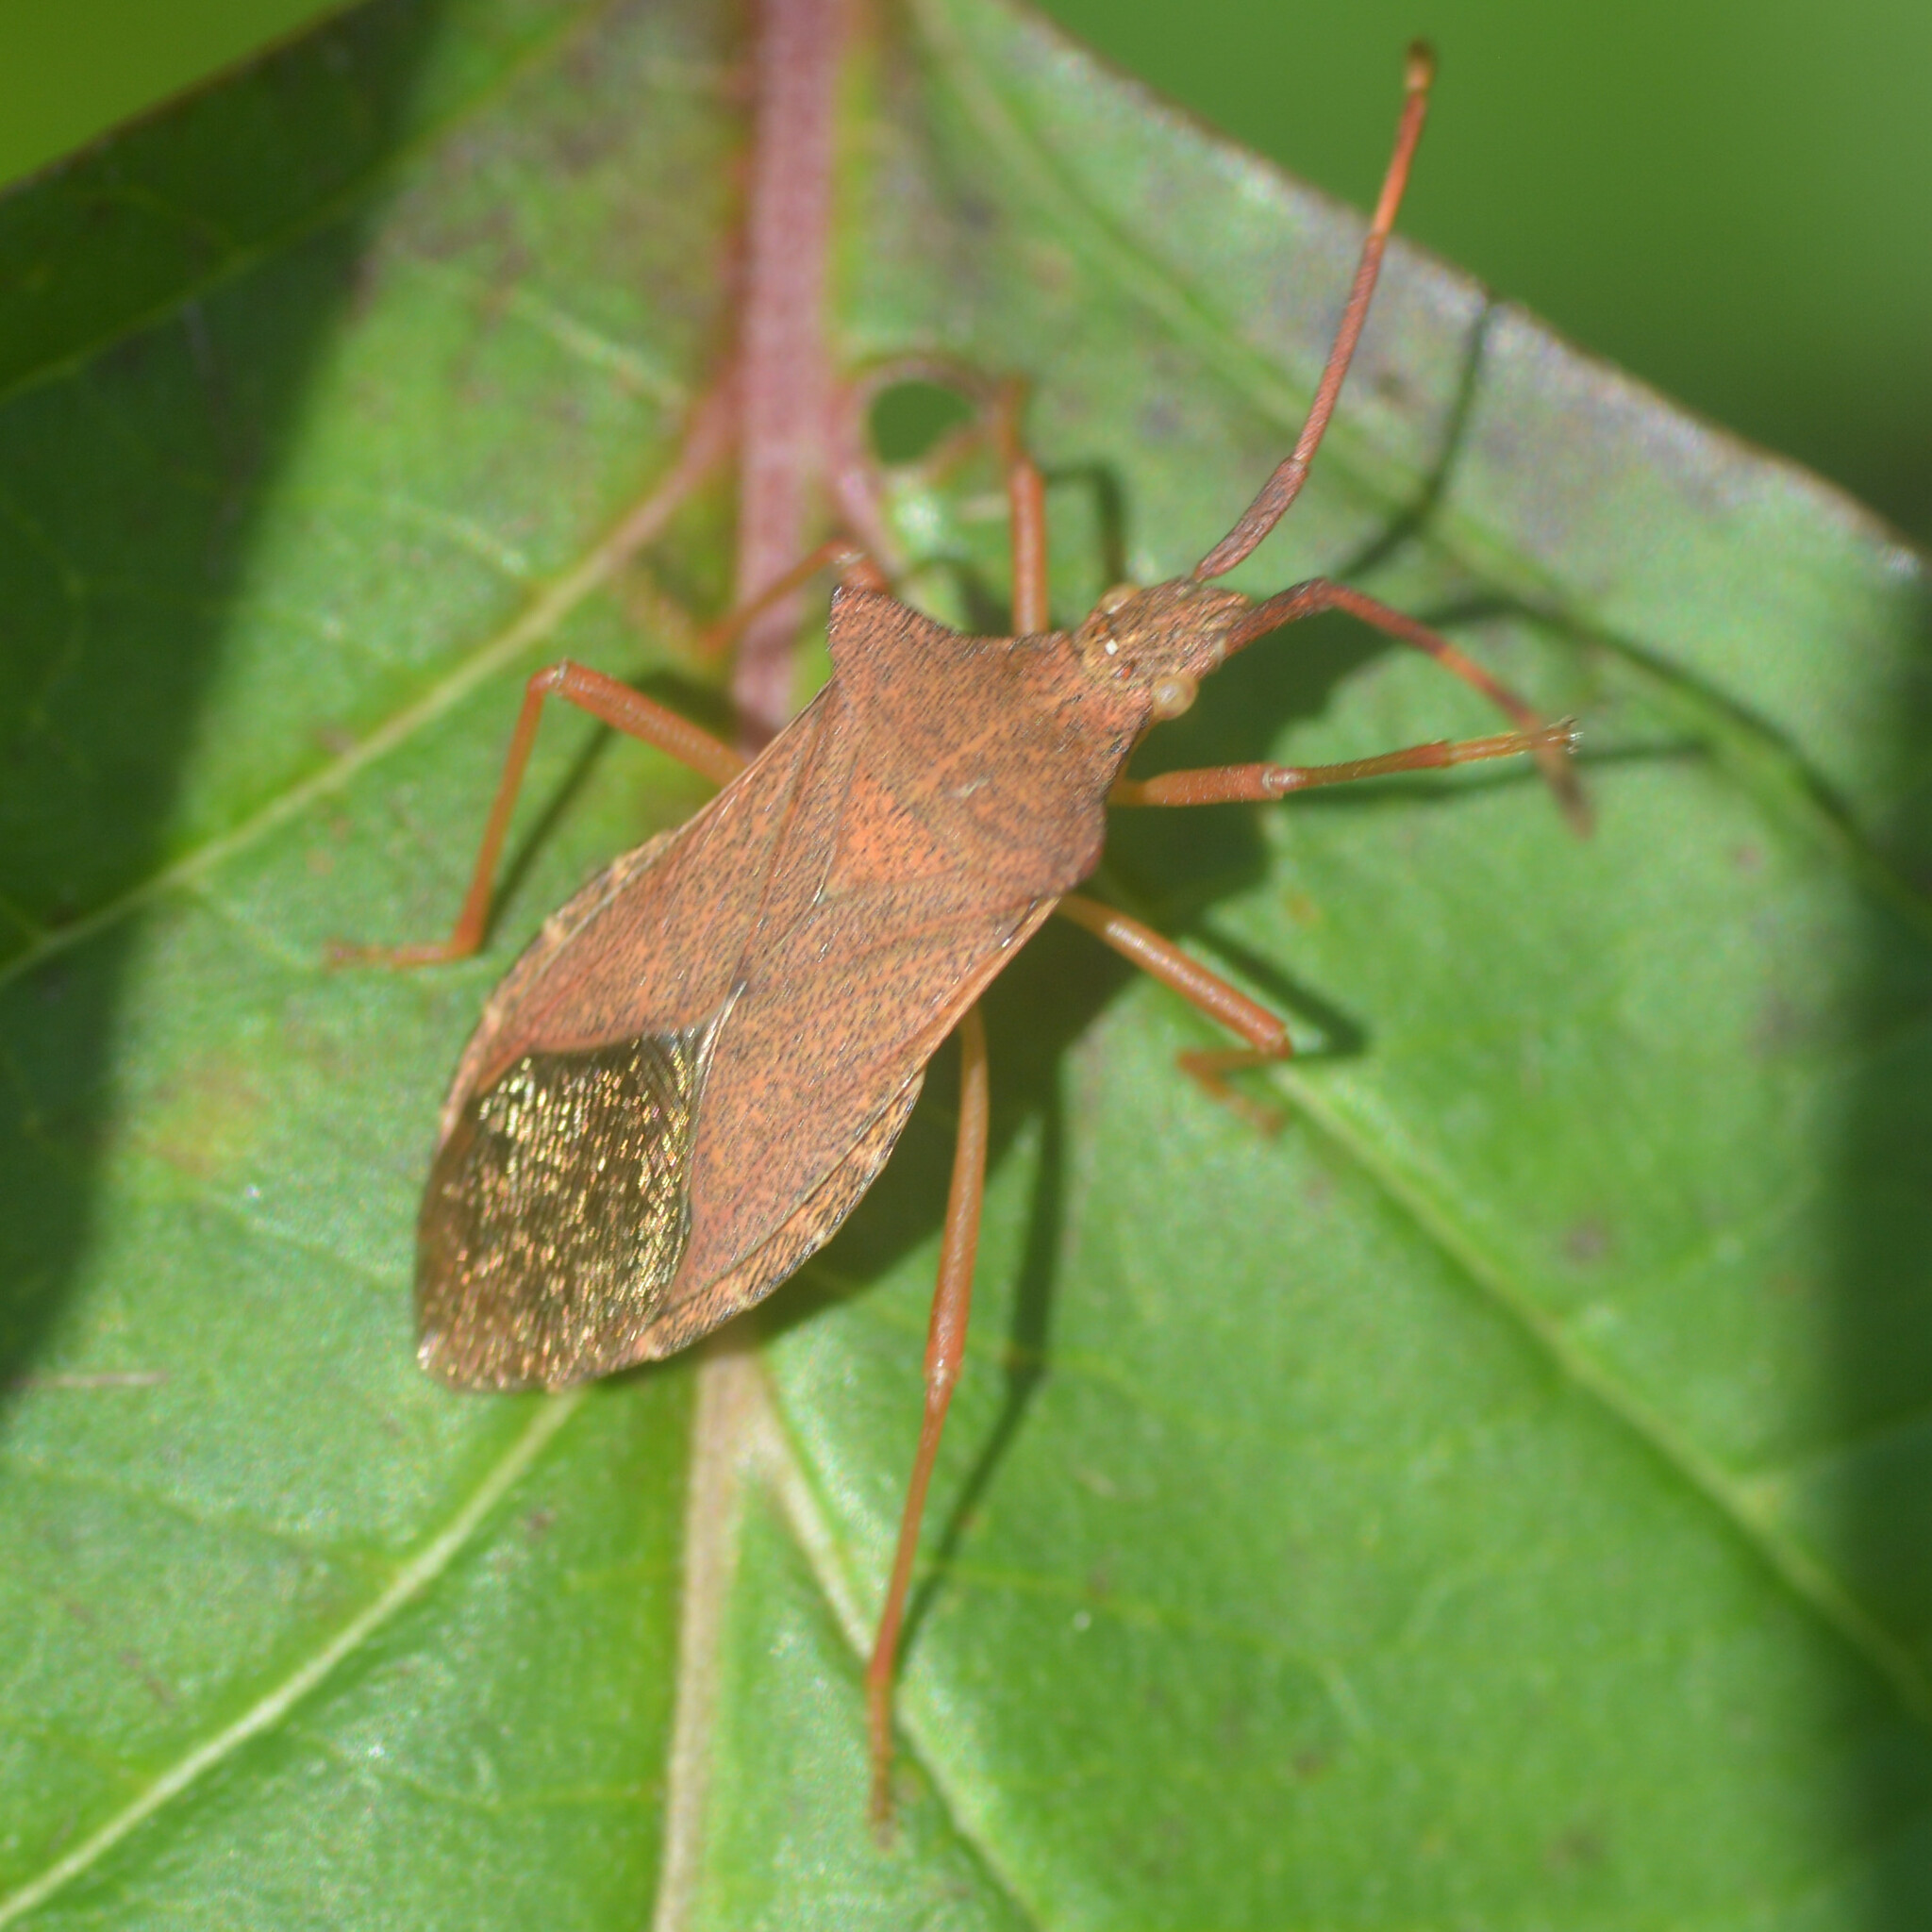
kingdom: Animalia
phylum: Arthropoda
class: Insecta
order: Hemiptera
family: Coreidae
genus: Gonocerus
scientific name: Gonocerus acuteangulatus
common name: Box bug
